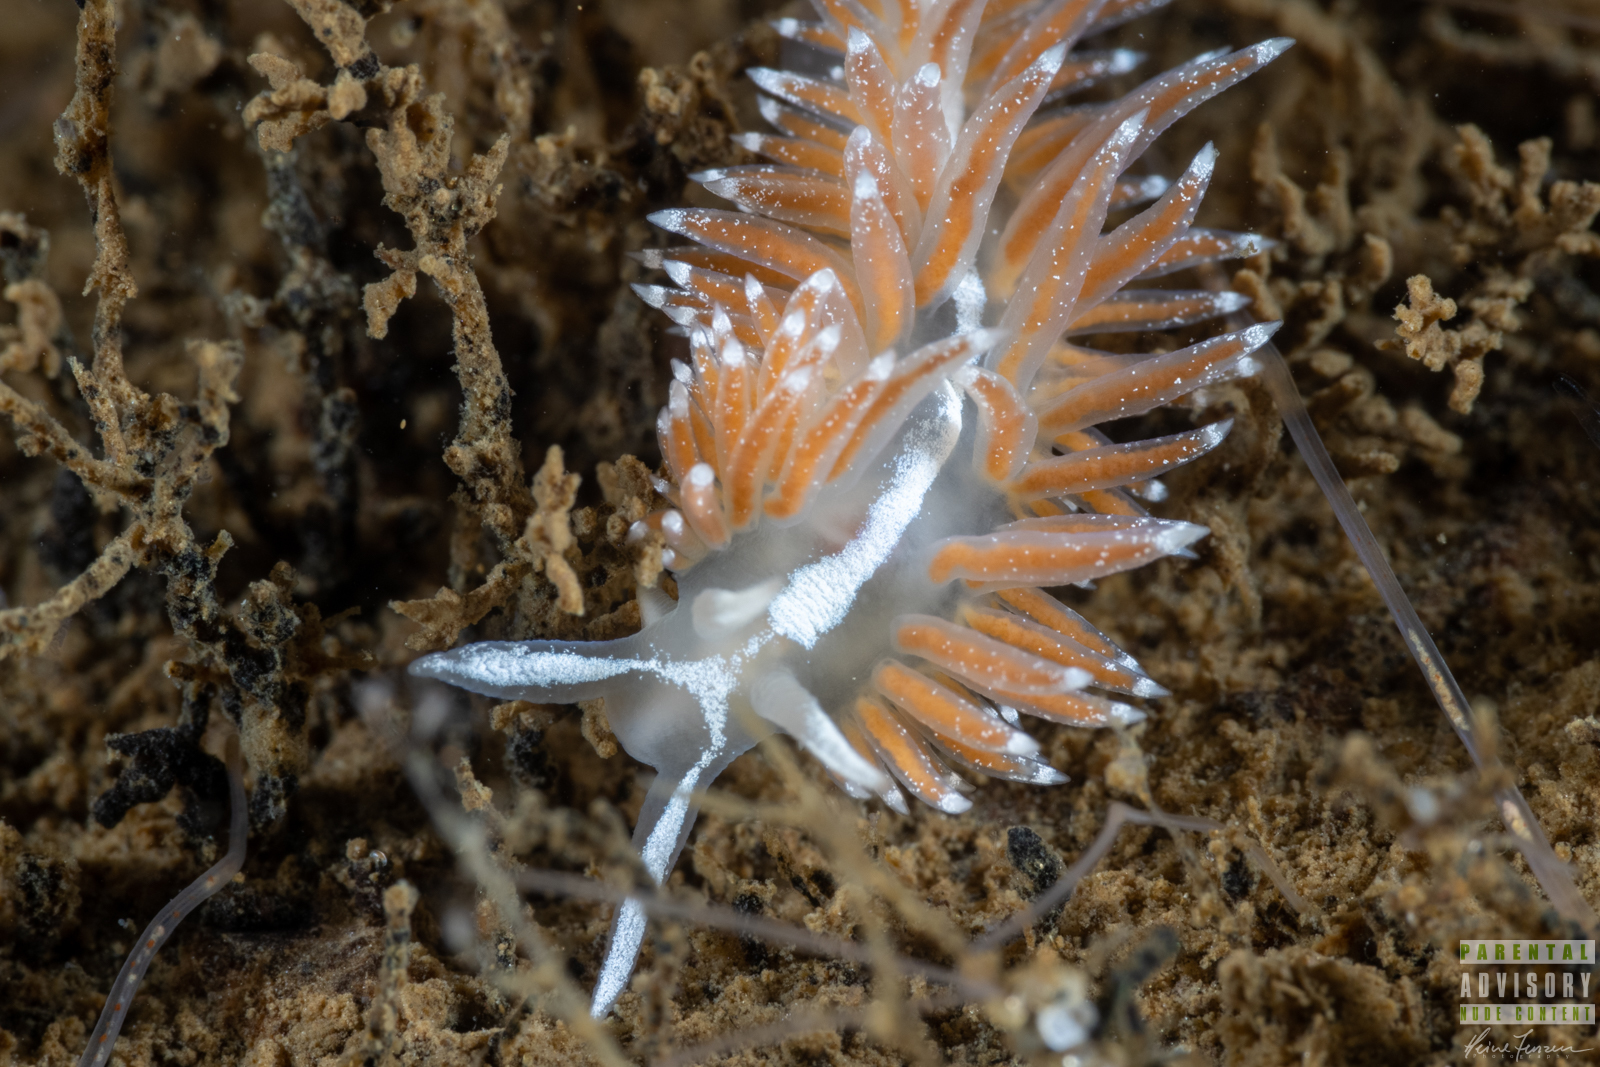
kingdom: Animalia
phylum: Mollusca
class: Gastropoda
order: Nudibranchia
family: Coryphellidae
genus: Coryphella
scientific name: Coryphella orjani
